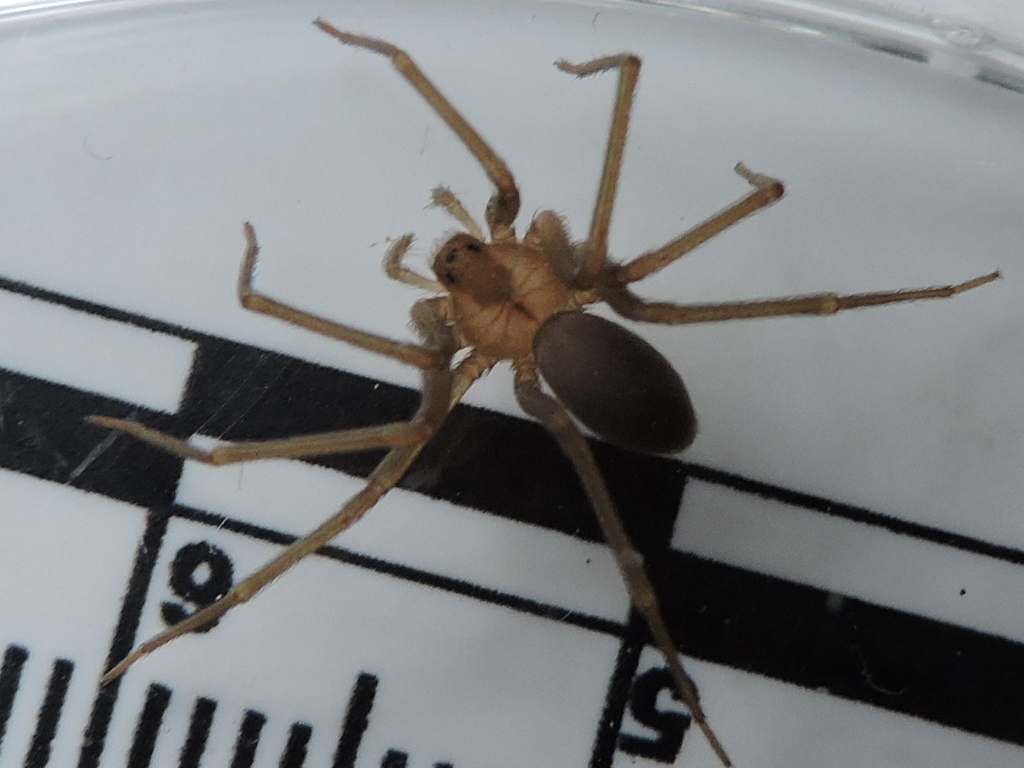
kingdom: Animalia
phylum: Arthropoda
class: Arachnida
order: Araneae
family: Sicariidae
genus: Loxosceles
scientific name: Loxosceles reclusa
